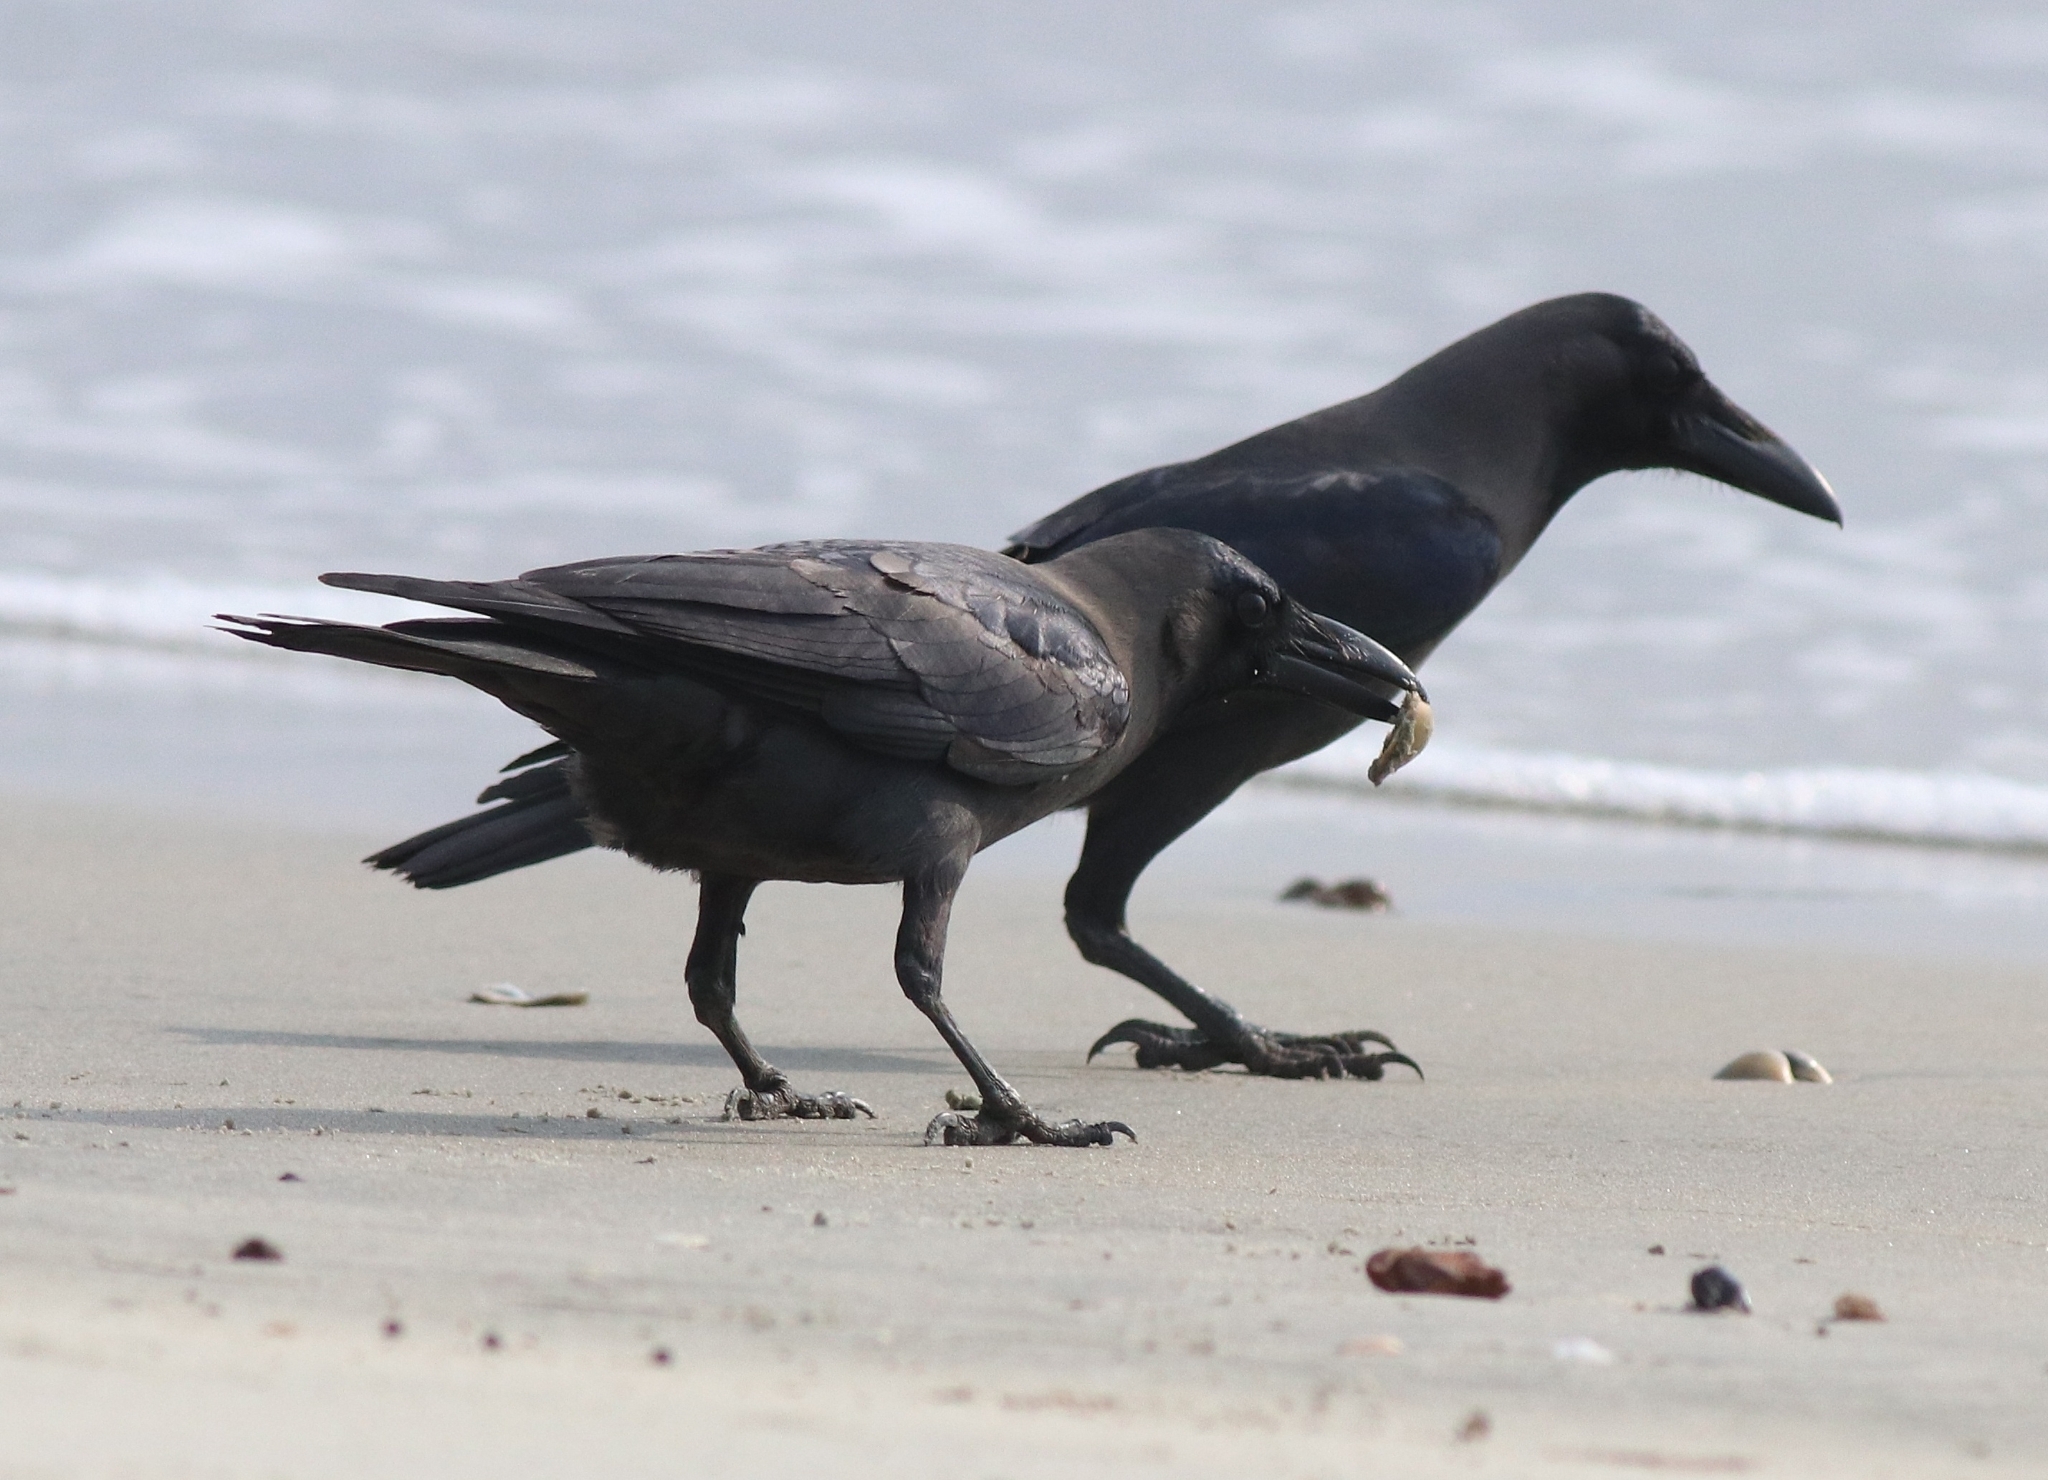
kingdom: Animalia
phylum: Chordata
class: Aves
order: Passeriformes
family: Corvidae
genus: Corvus
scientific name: Corvus splendens
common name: House crow
